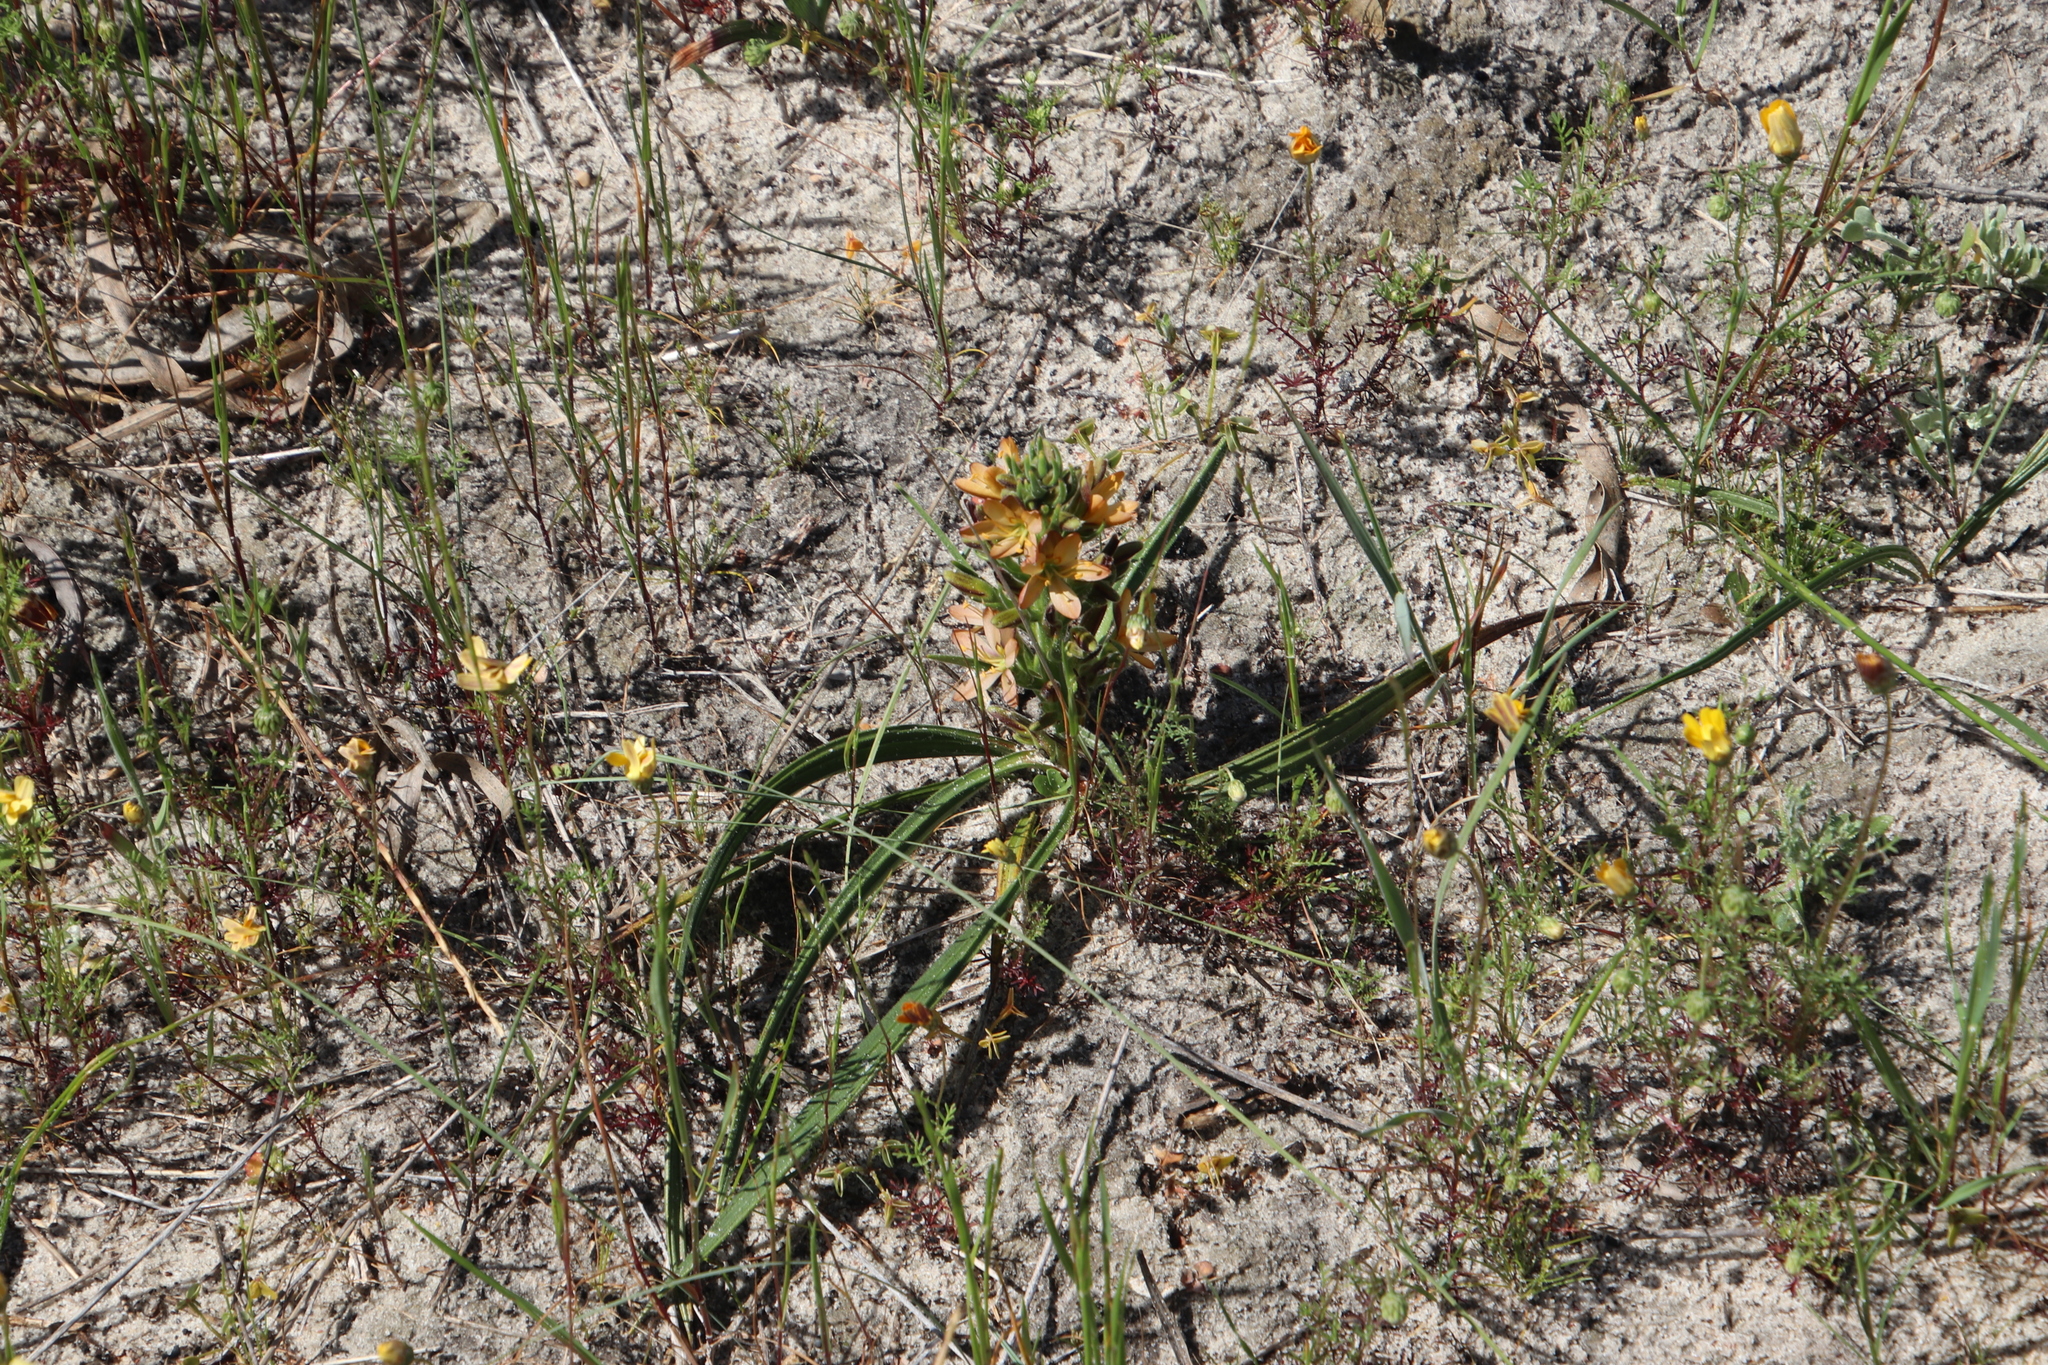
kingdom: Plantae
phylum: Tracheophyta
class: Liliopsida
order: Commelinales
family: Haemodoraceae
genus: Wachendorfia
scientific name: Wachendorfia multiflora
